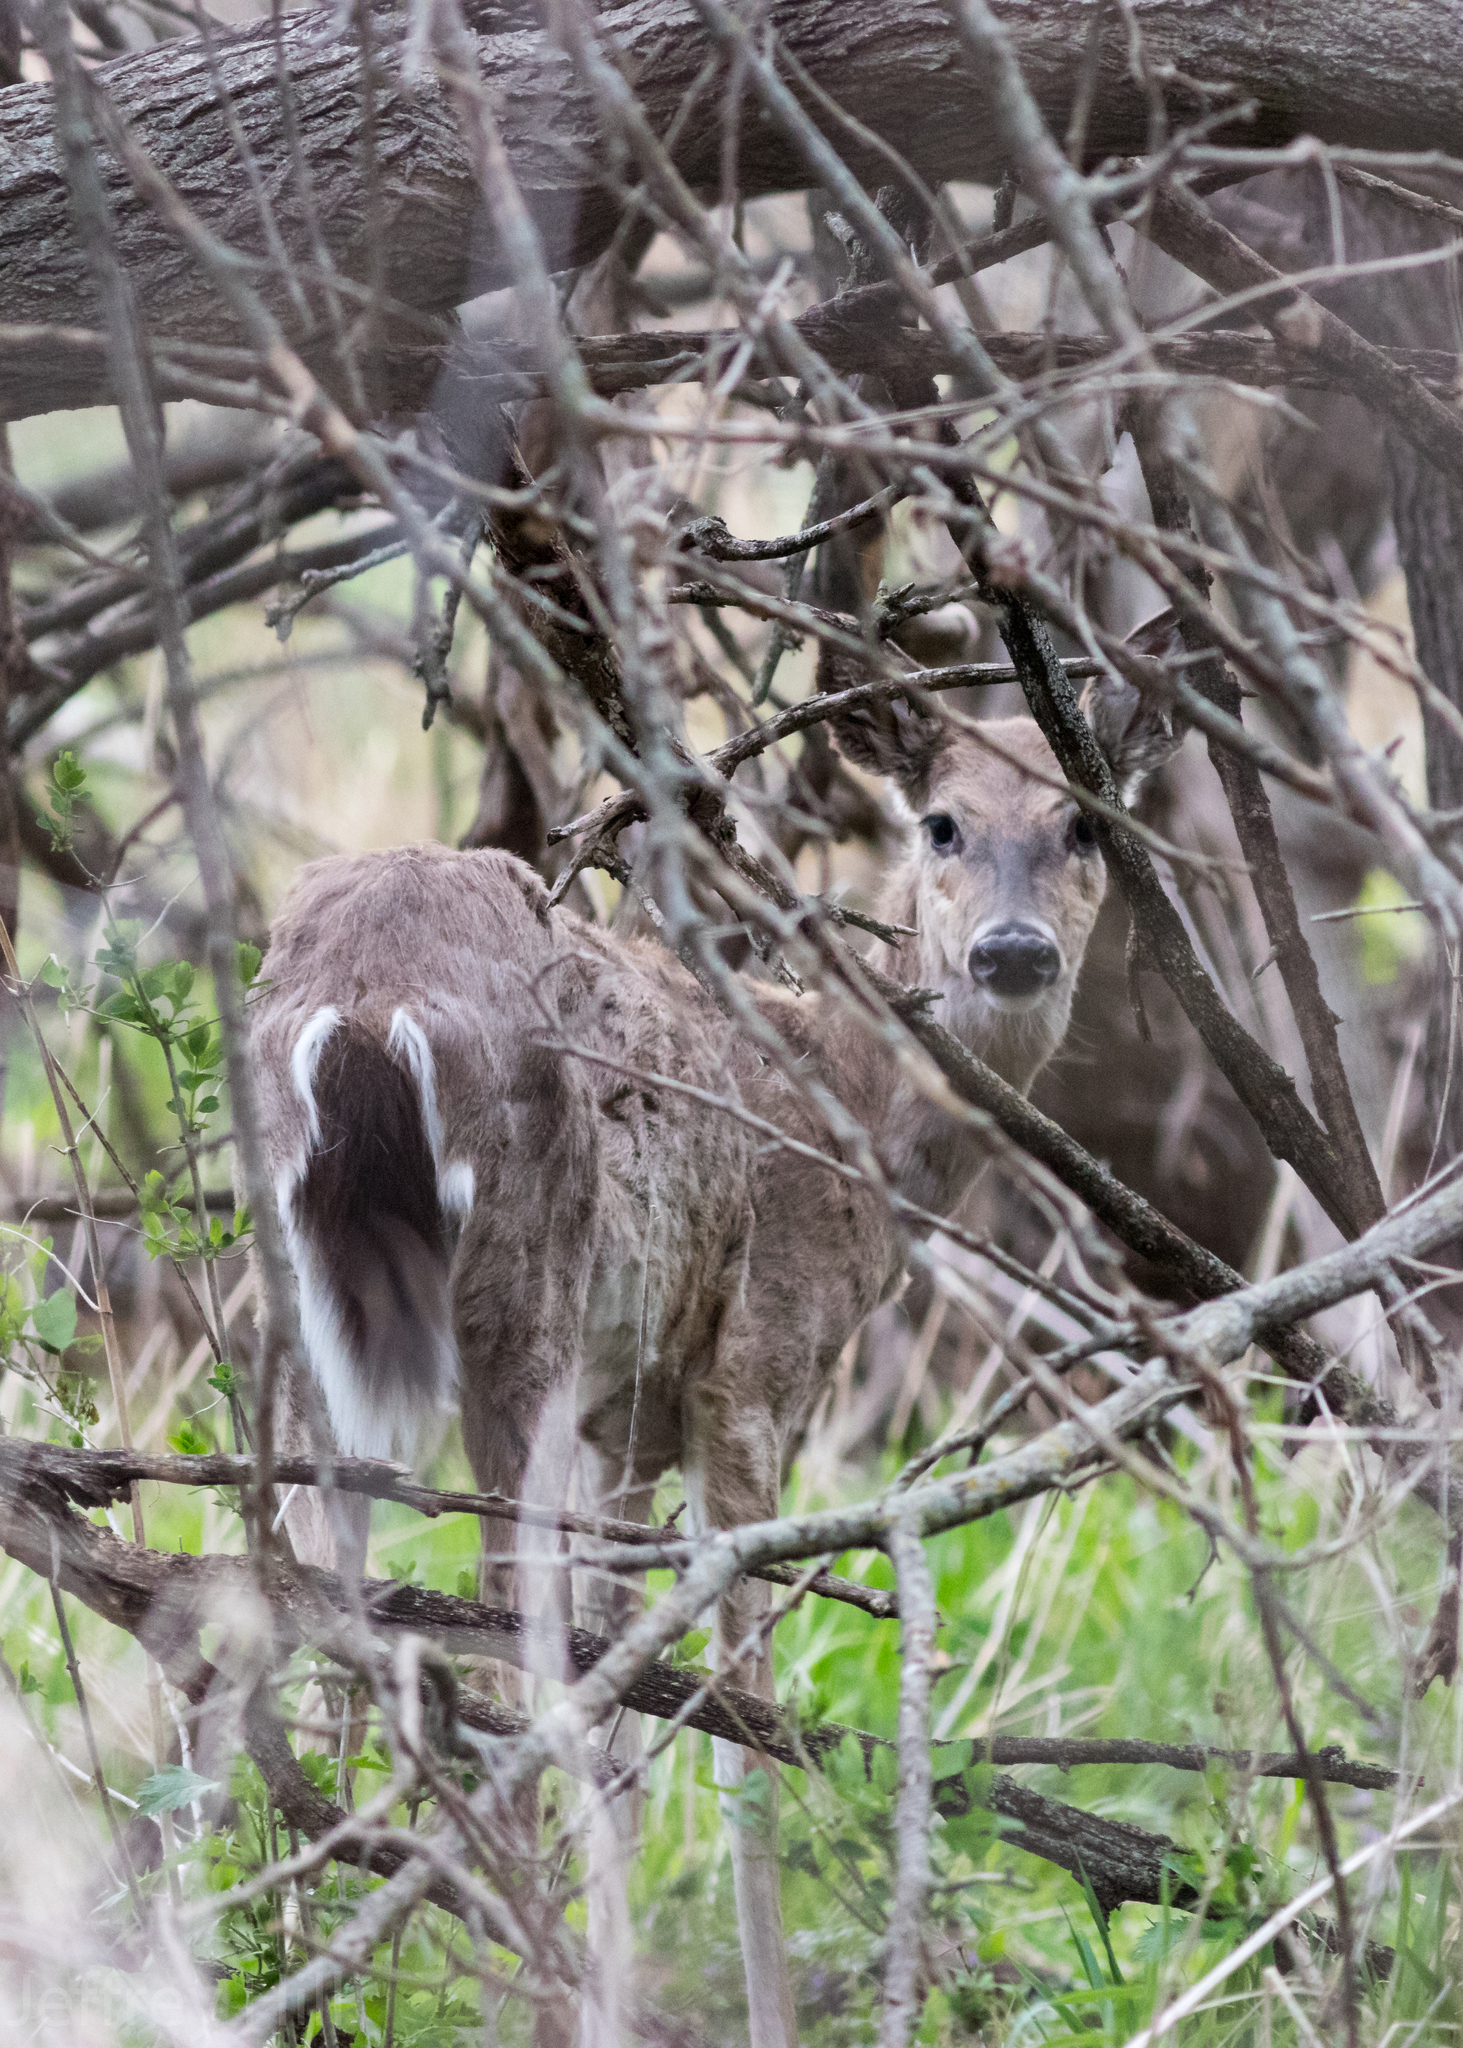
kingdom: Animalia
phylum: Chordata
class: Mammalia
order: Artiodactyla
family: Cervidae
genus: Odocoileus
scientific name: Odocoileus virginianus
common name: White-tailed deer
